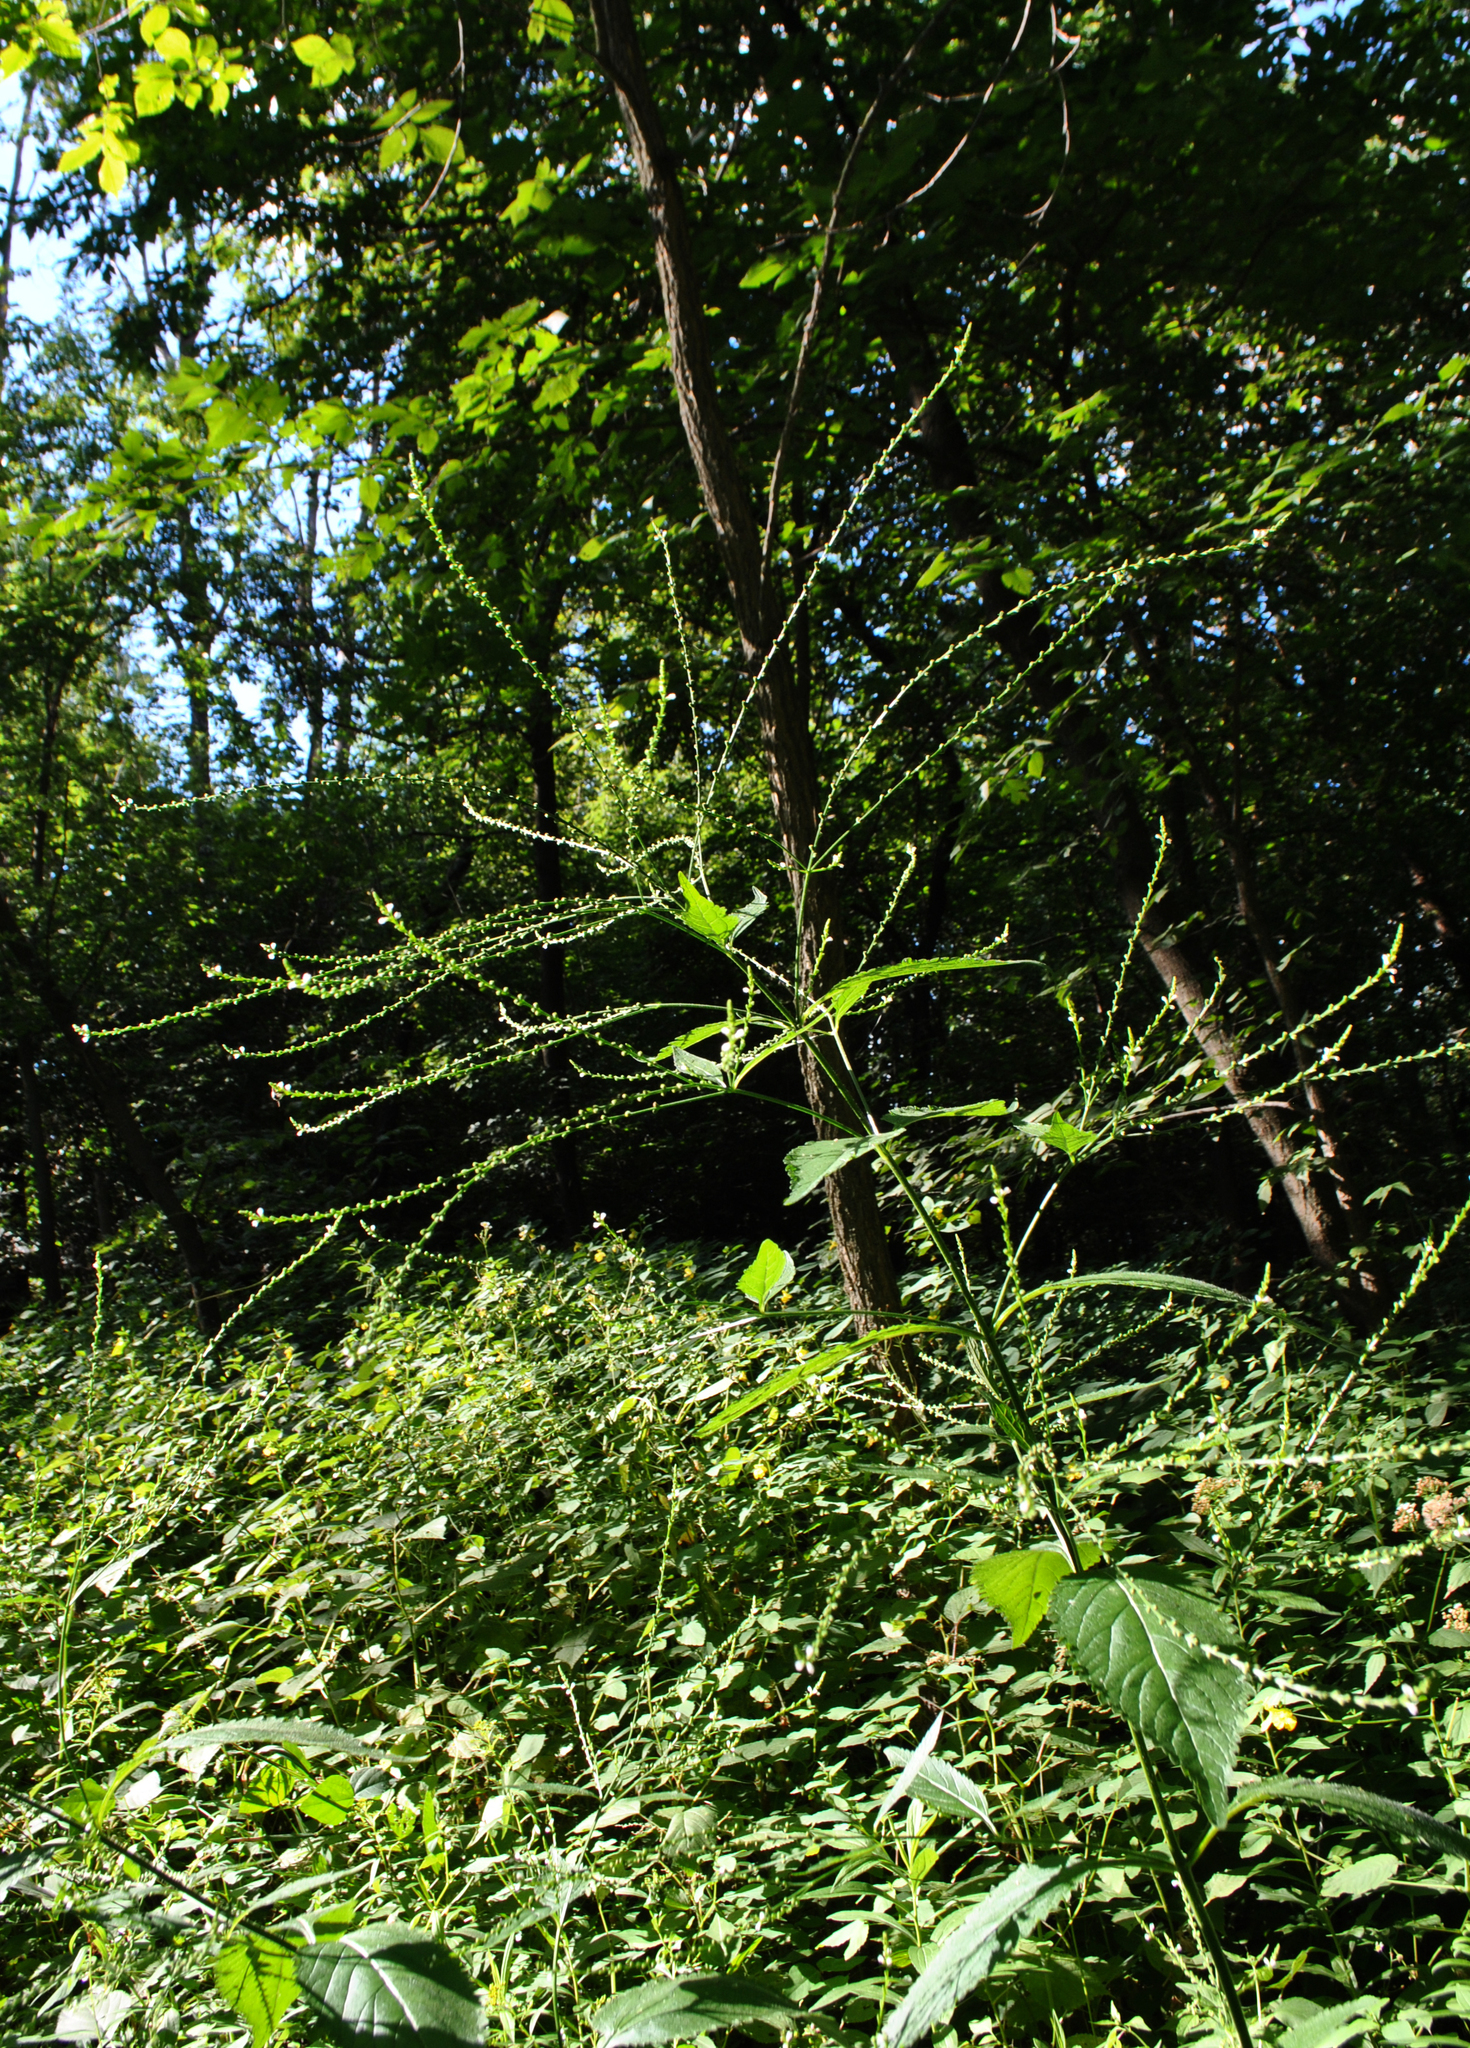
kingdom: Plantae
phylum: Tracheophyta
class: Magnoliopsida
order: Lamiales
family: Verbenaceae
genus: Verbena
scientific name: Verbena urticifolia
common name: Nettle-leaved vervain
